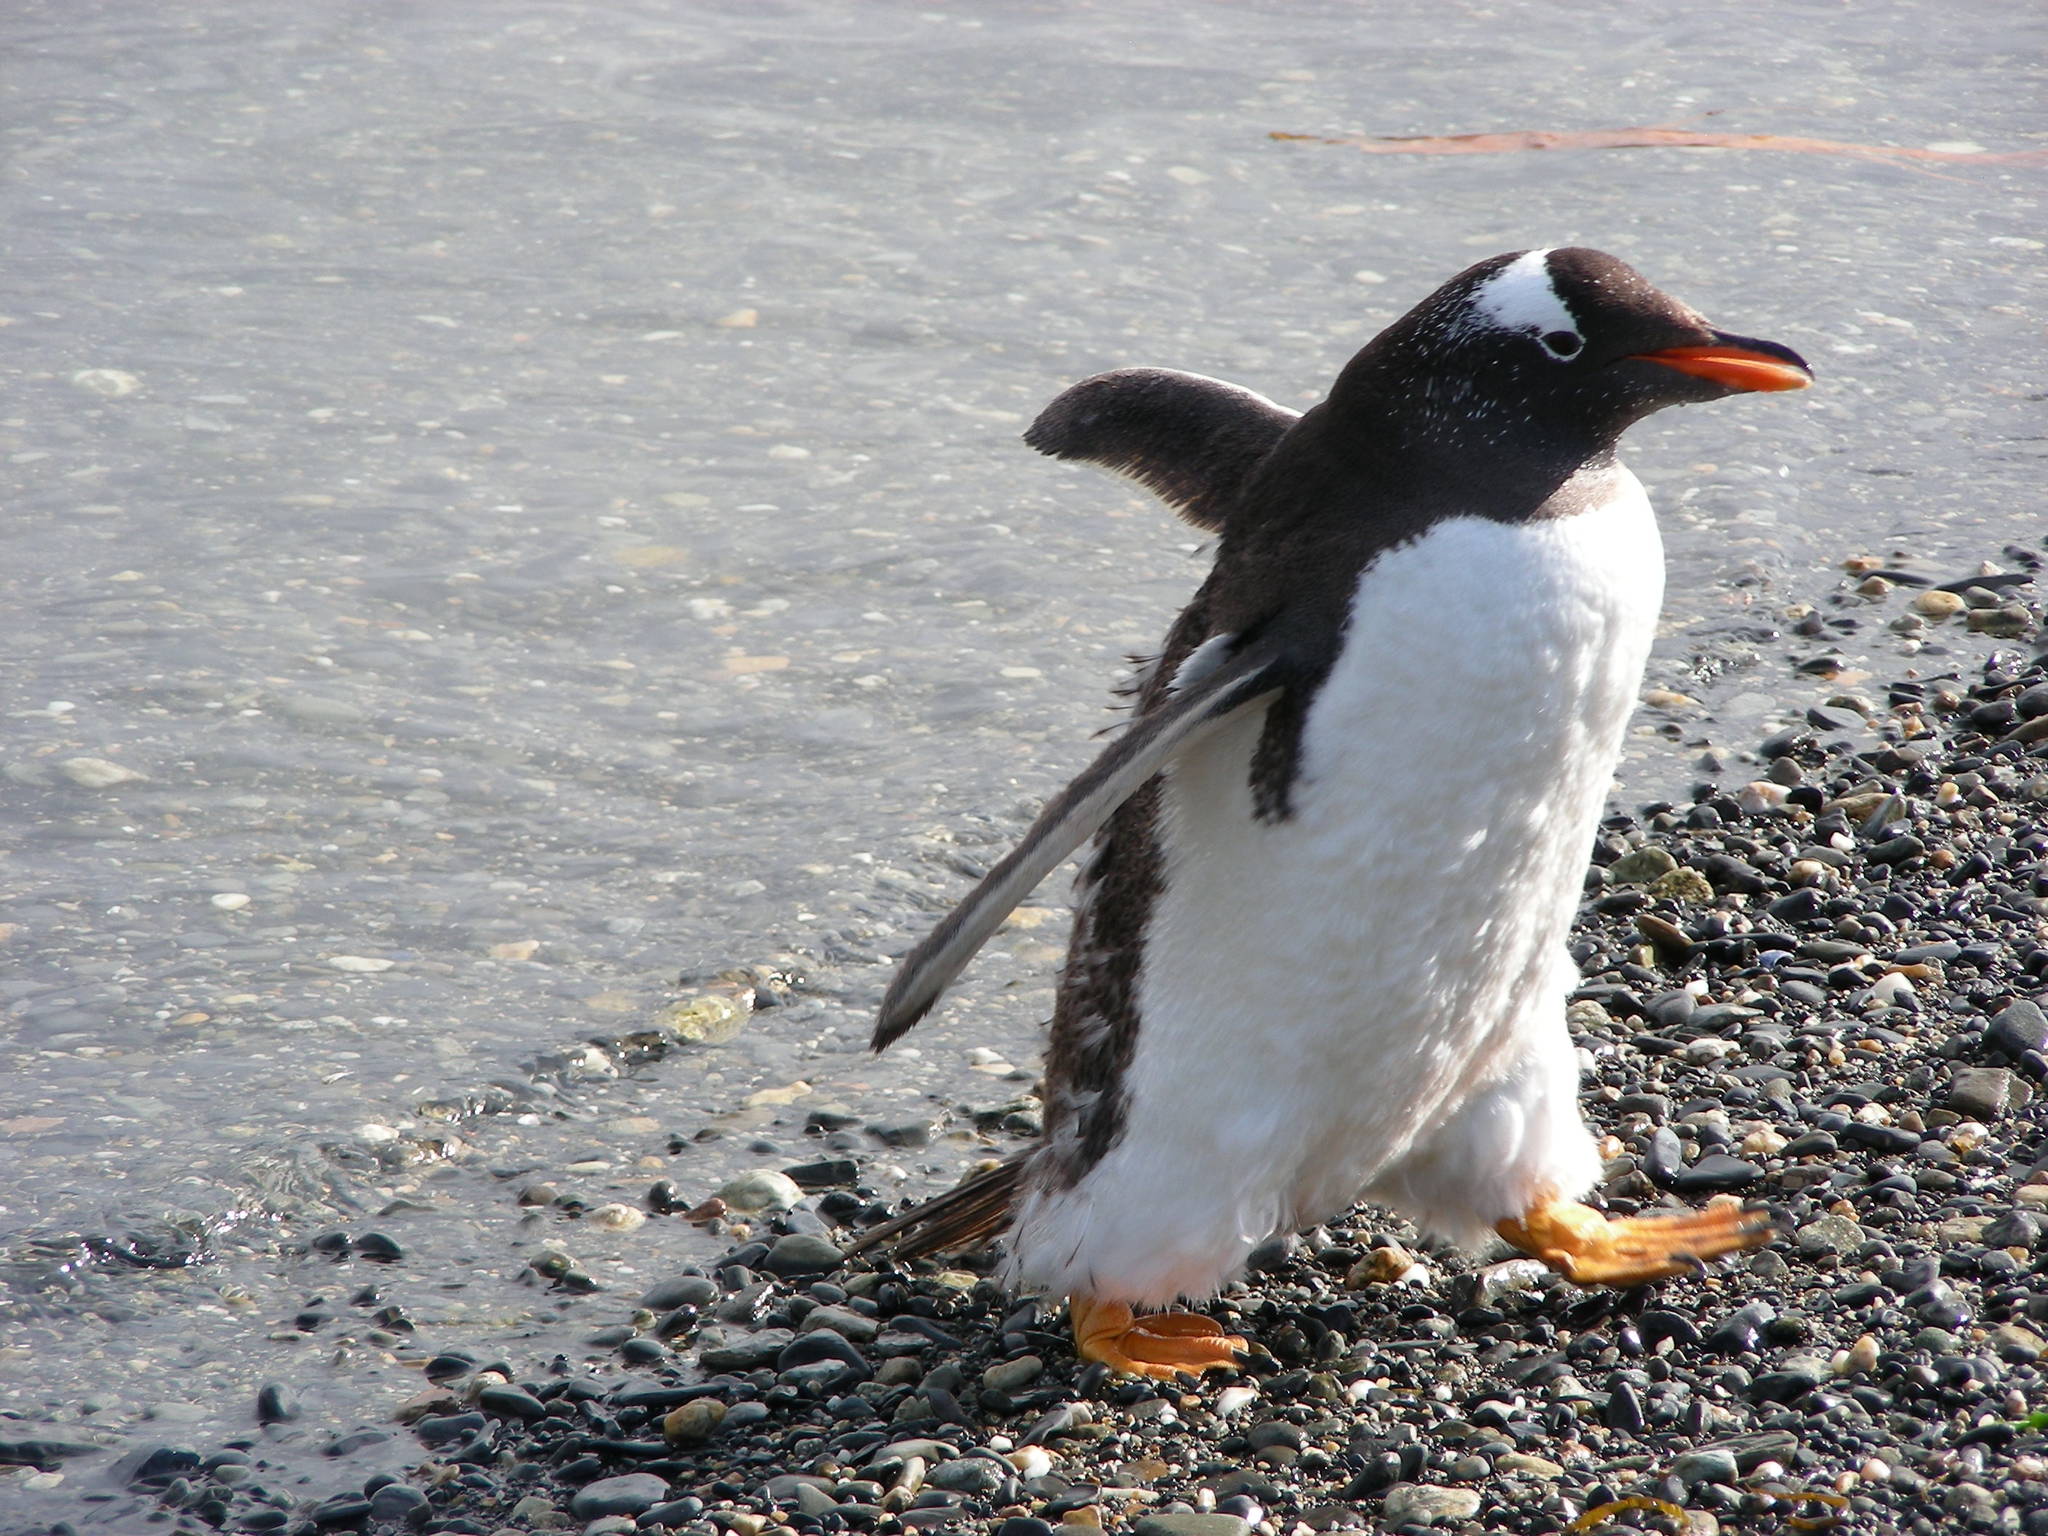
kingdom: Animalia
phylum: Chordata
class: Aves
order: Sphenisciformes
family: Spheniscidae
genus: Pygoscelis
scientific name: Pygoscelis papua
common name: Gentoo penguin
